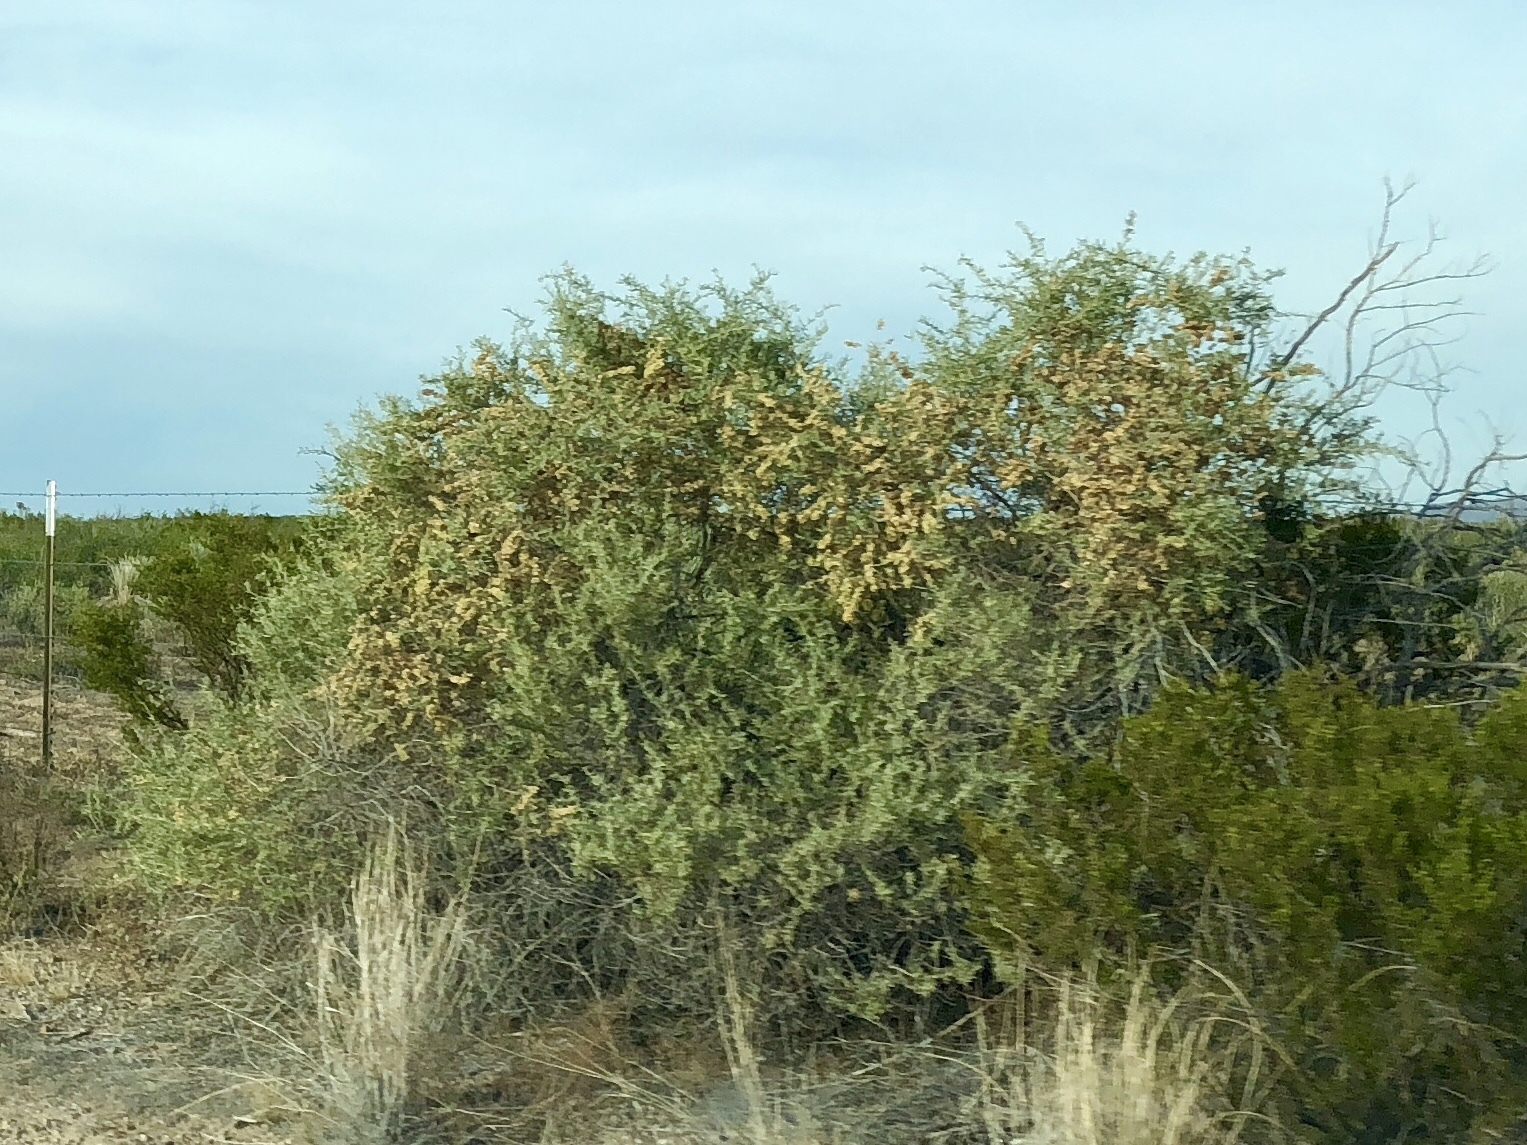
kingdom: Plantae
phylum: Tracheophyta
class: Magnoliopsida
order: Caryophyllales
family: Amaranthaceae
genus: Atriplex
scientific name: Atriplex canescens
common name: Four-wing saltbush
